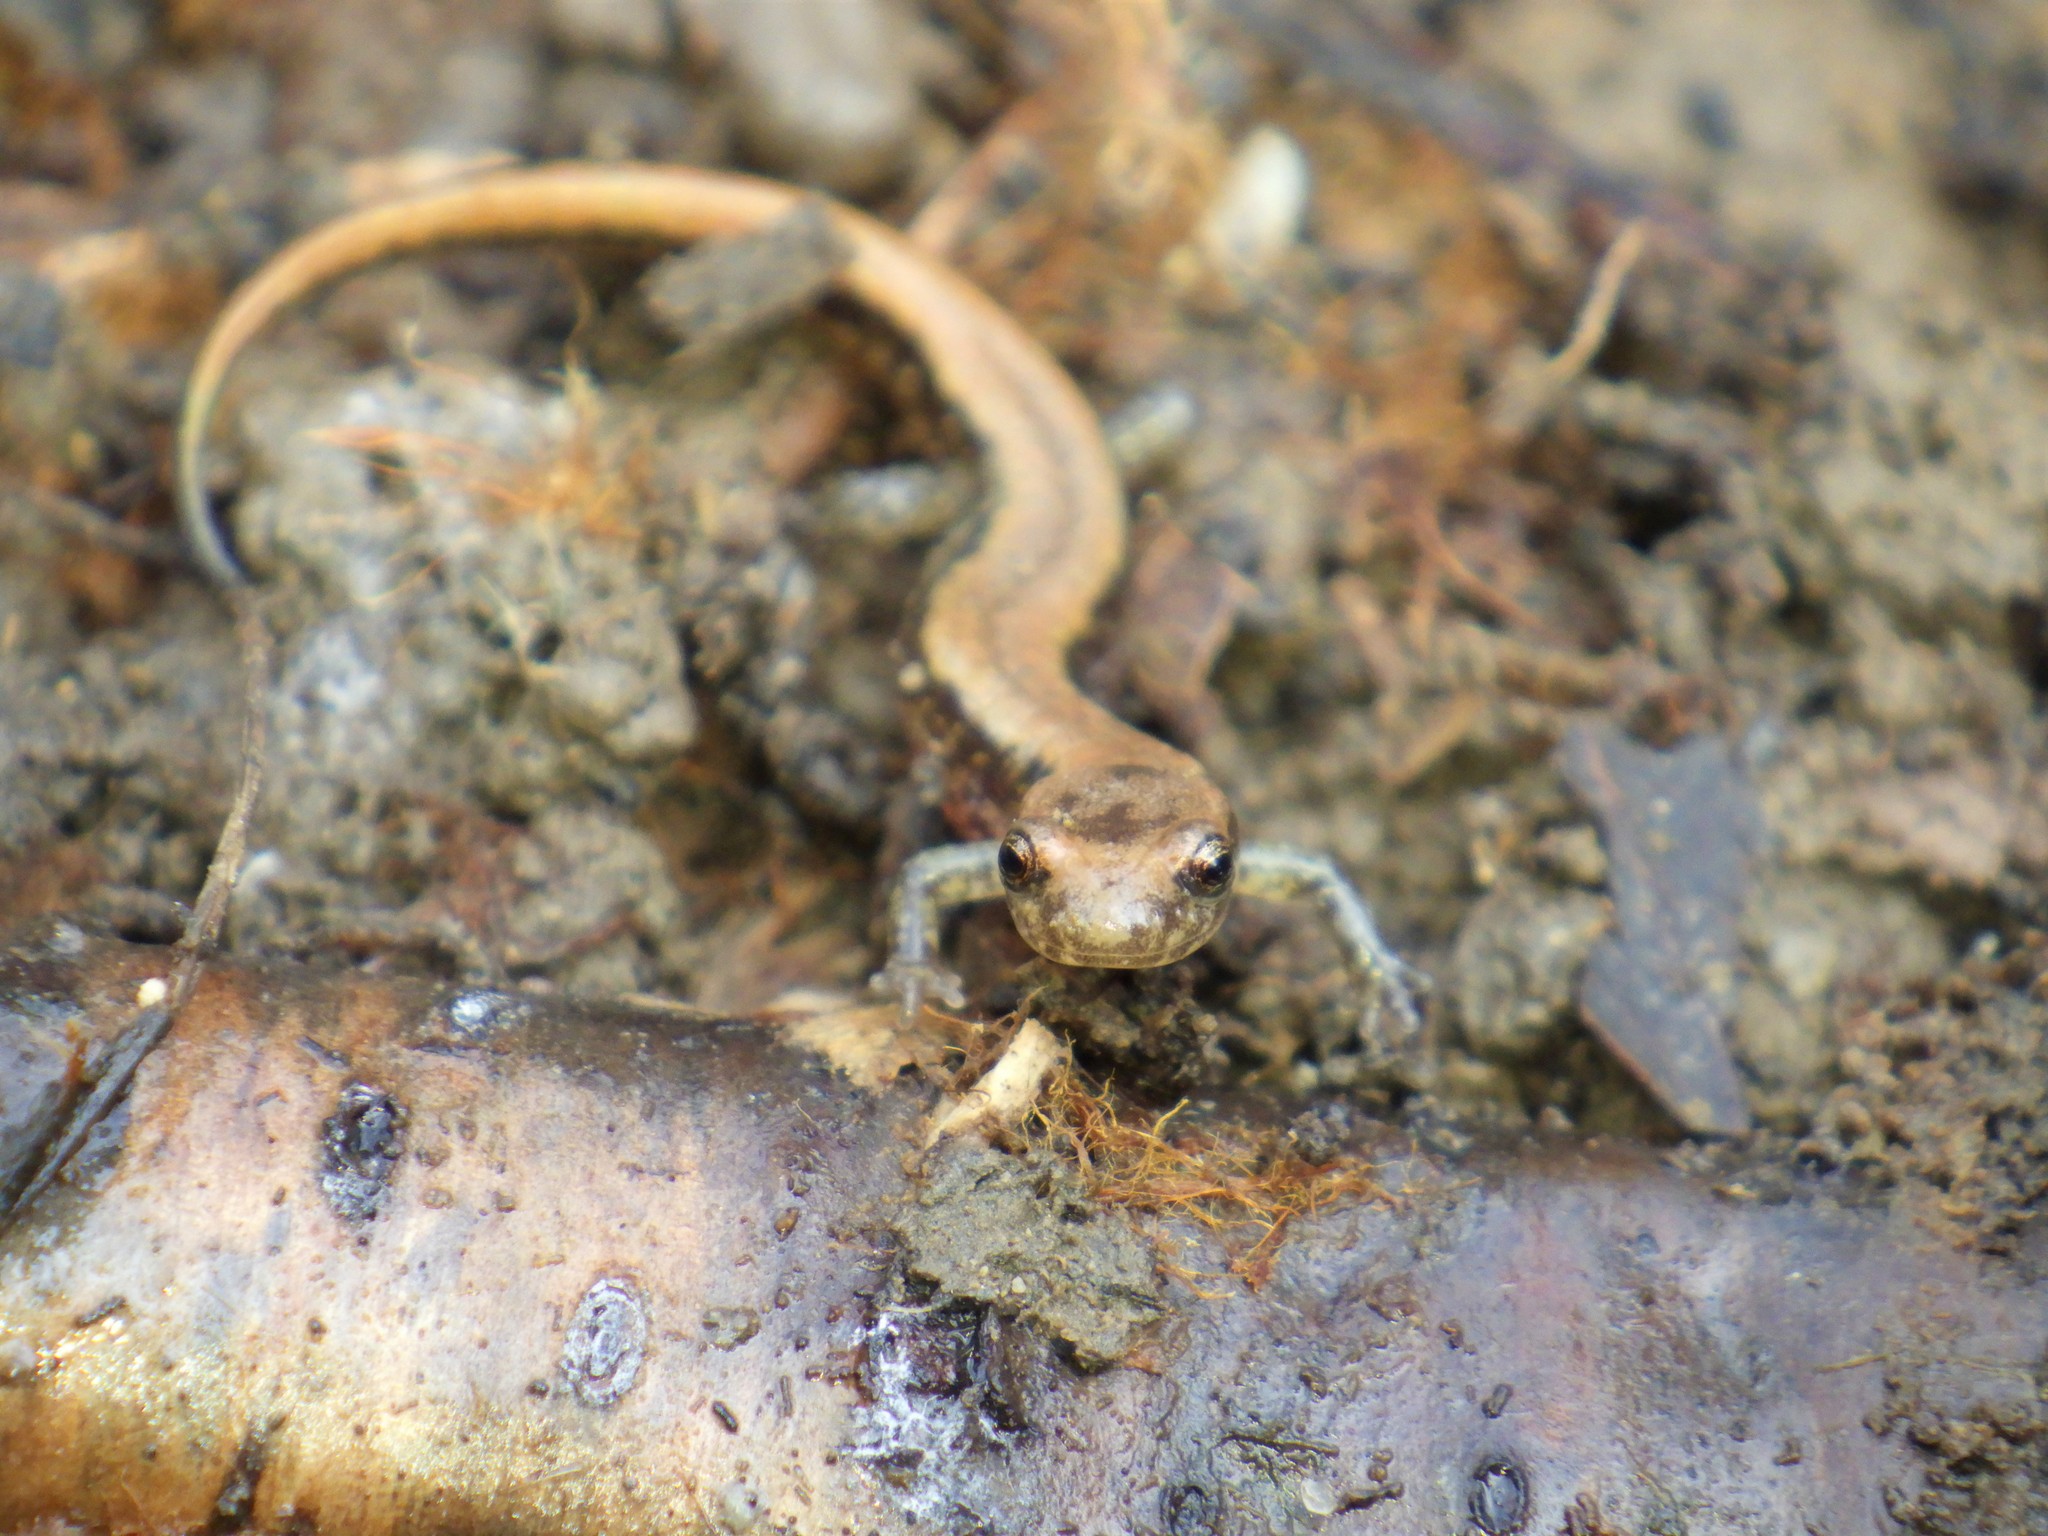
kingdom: Animalia
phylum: Chordata
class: Amphibia
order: Caudata
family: Plethodontidae
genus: Desmognathus
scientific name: Desmognathus ochrophaeus
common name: Allegheny mountain dusky salamander
